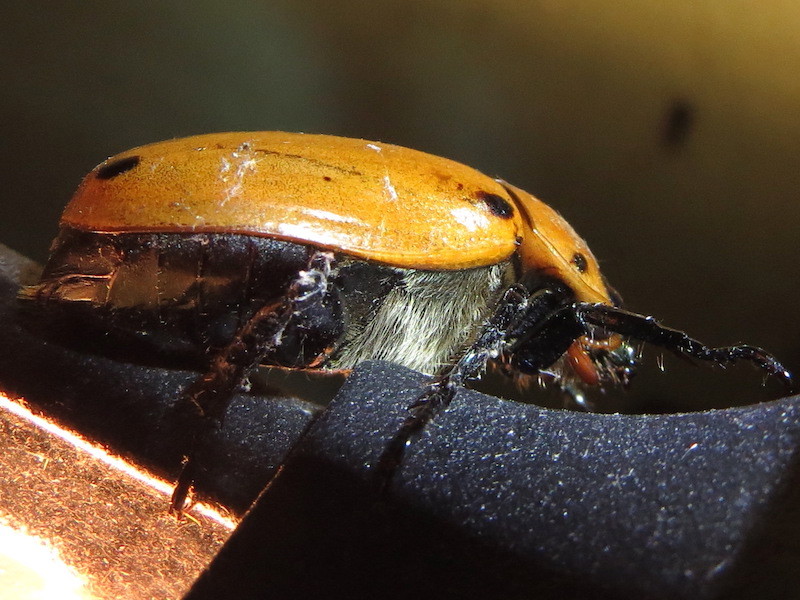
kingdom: Animalia
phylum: Arthropoda
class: Insecta
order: Coleoptera
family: Scarabaeidae
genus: Pelidnota
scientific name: Pelidnota punctata
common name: Grapevine beetle
